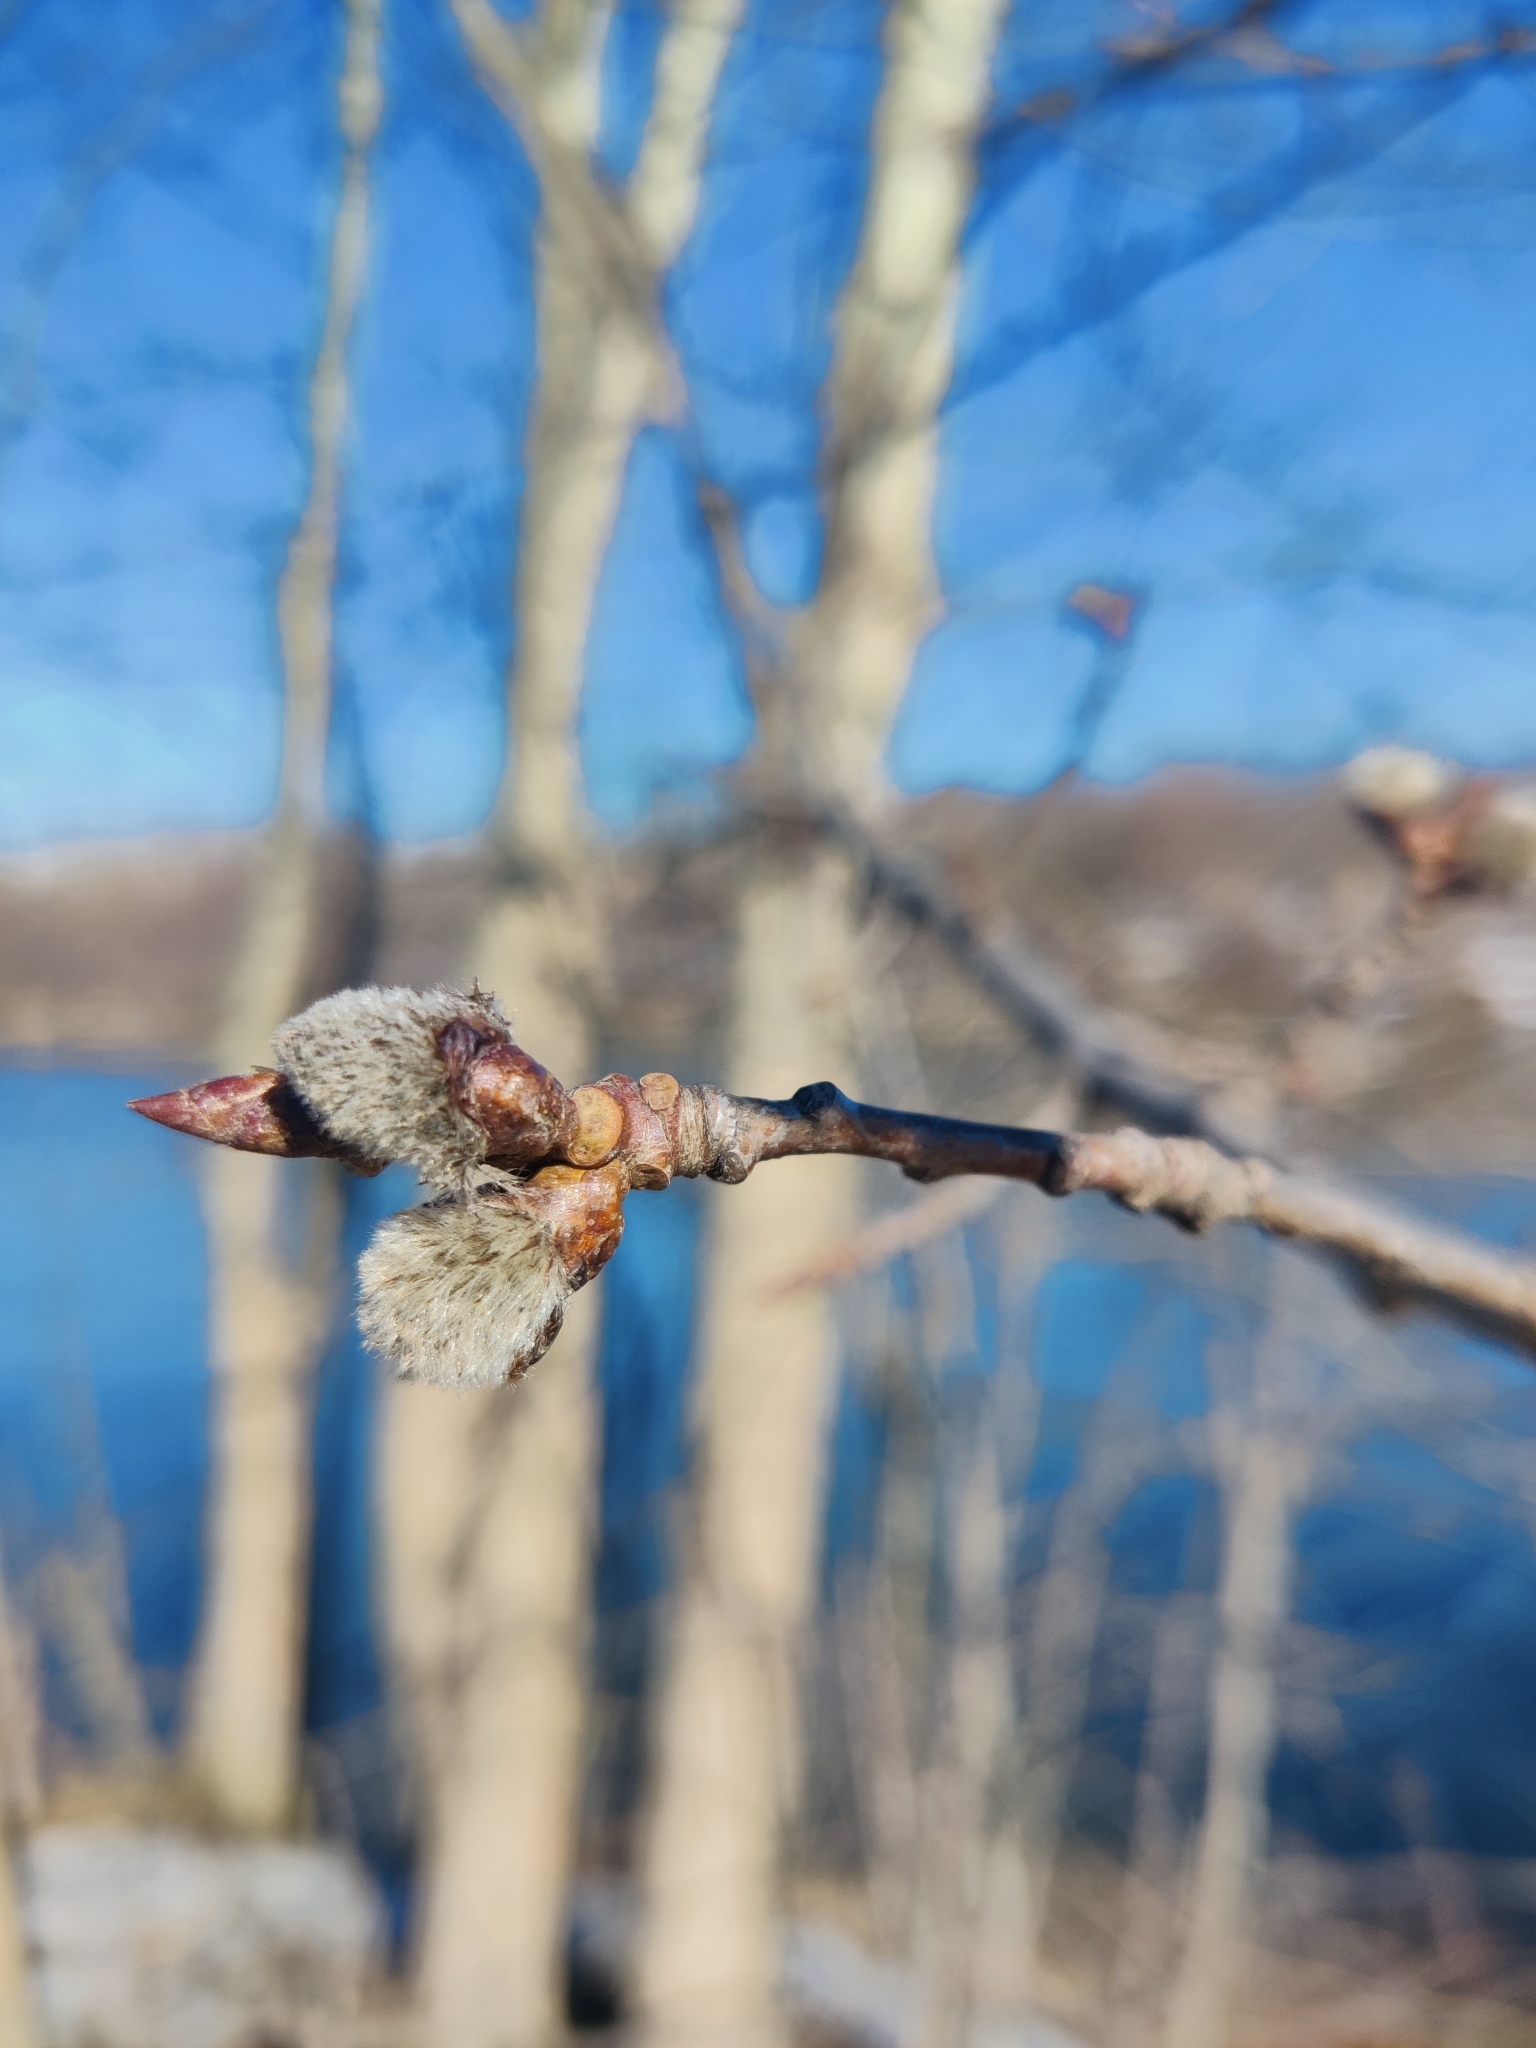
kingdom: Plantae
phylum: Tracheophyta
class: Magnoliopsida
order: Malpighiales
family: Salicaceae
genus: Populus
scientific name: Populus tremula
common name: European aspen
